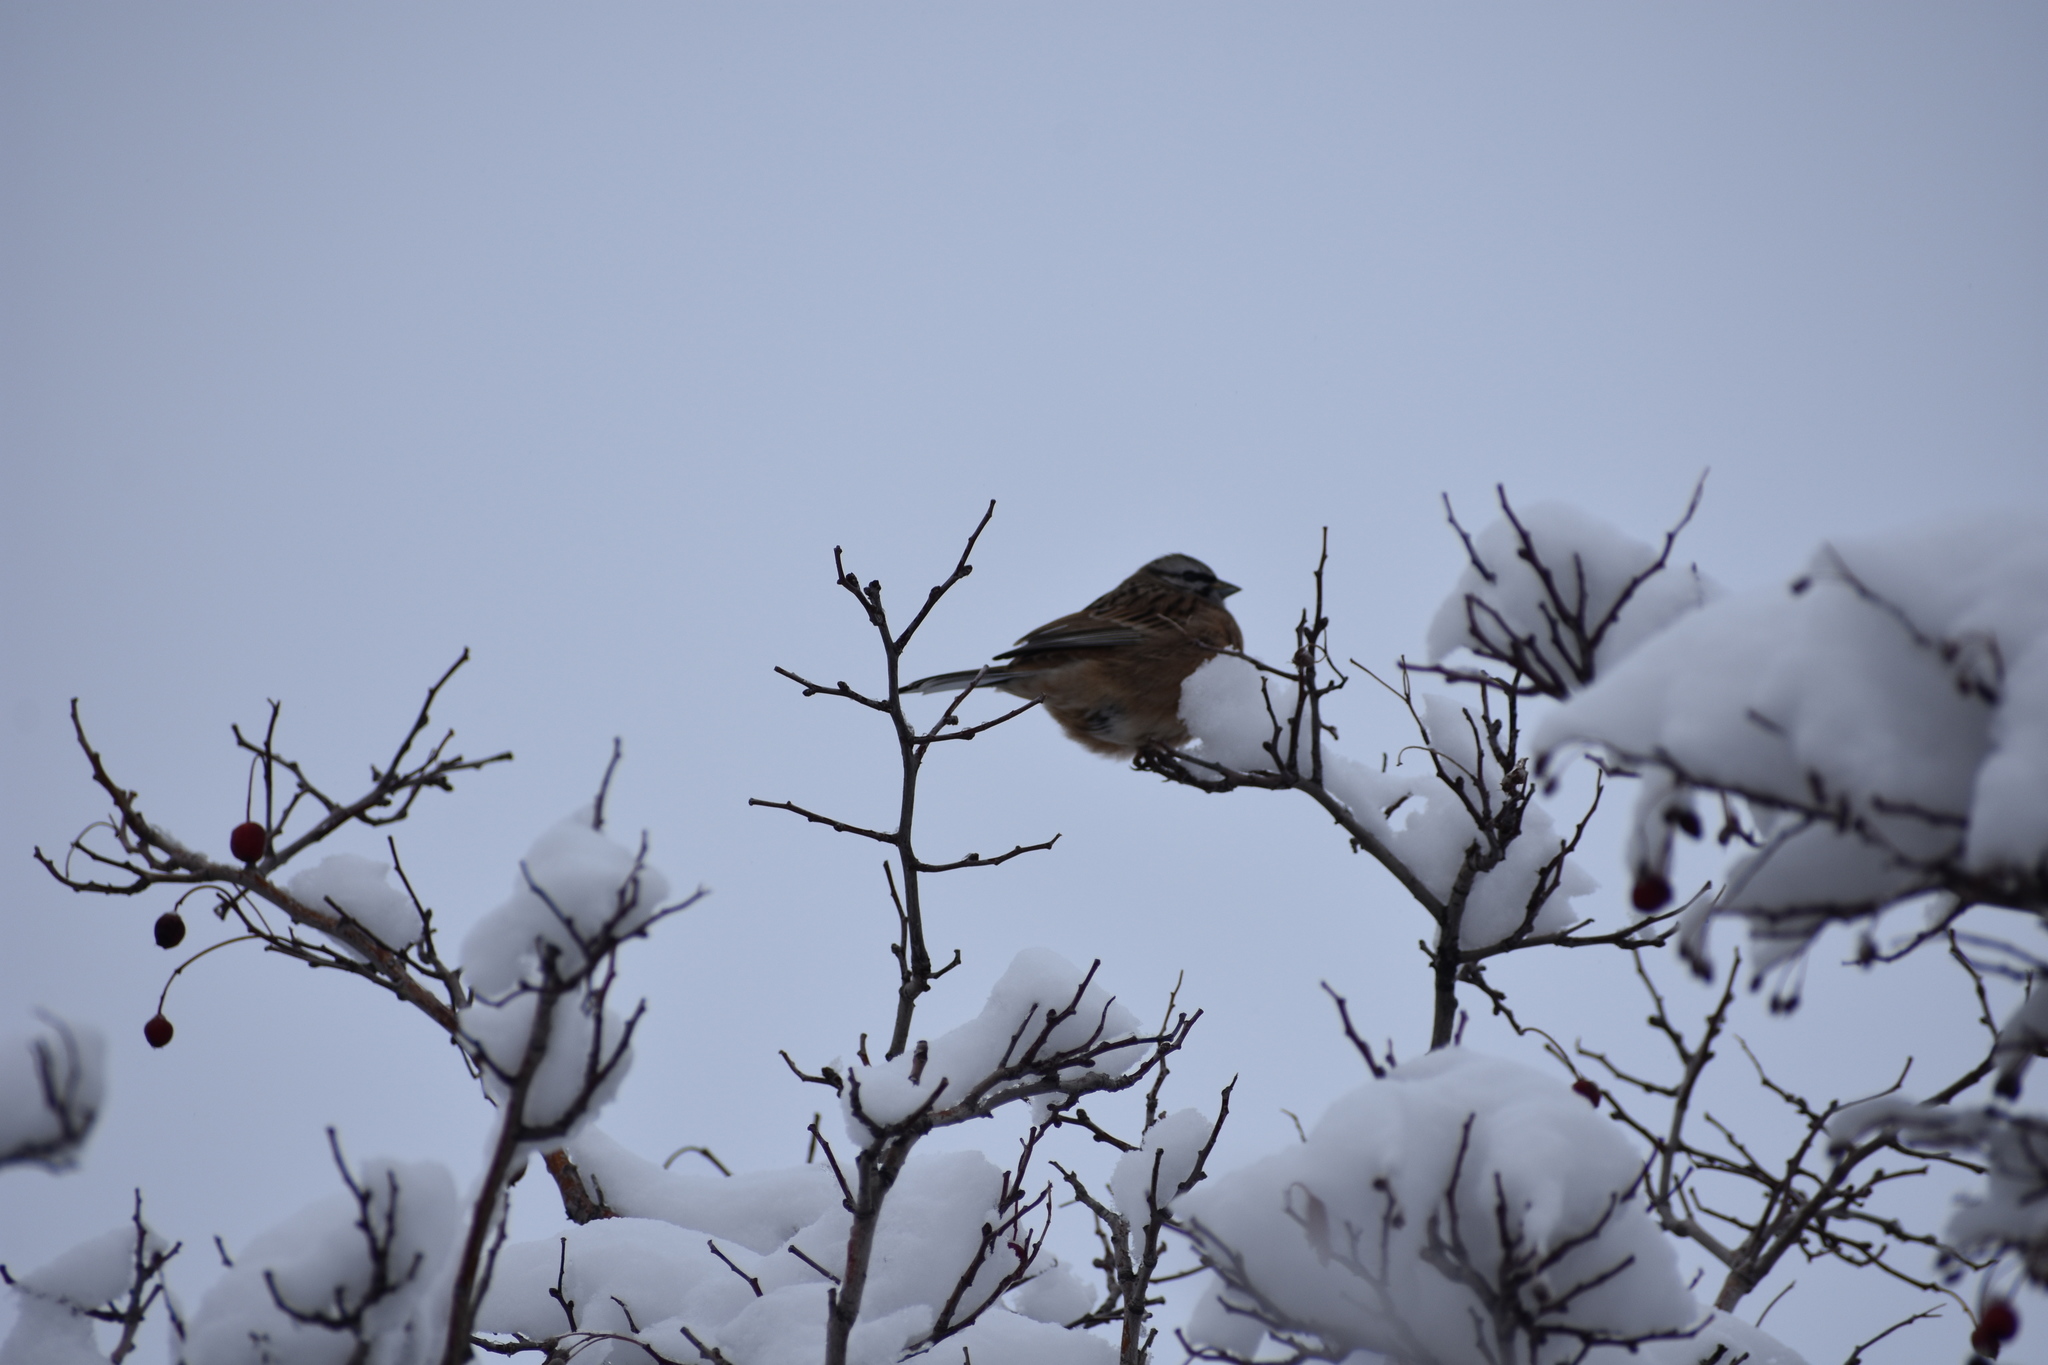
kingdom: Animalia
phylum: Chordata
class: Aves
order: Passeriformes
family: Emberizidae
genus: Emberiza
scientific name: Emberiza cia
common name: Rock bunting
